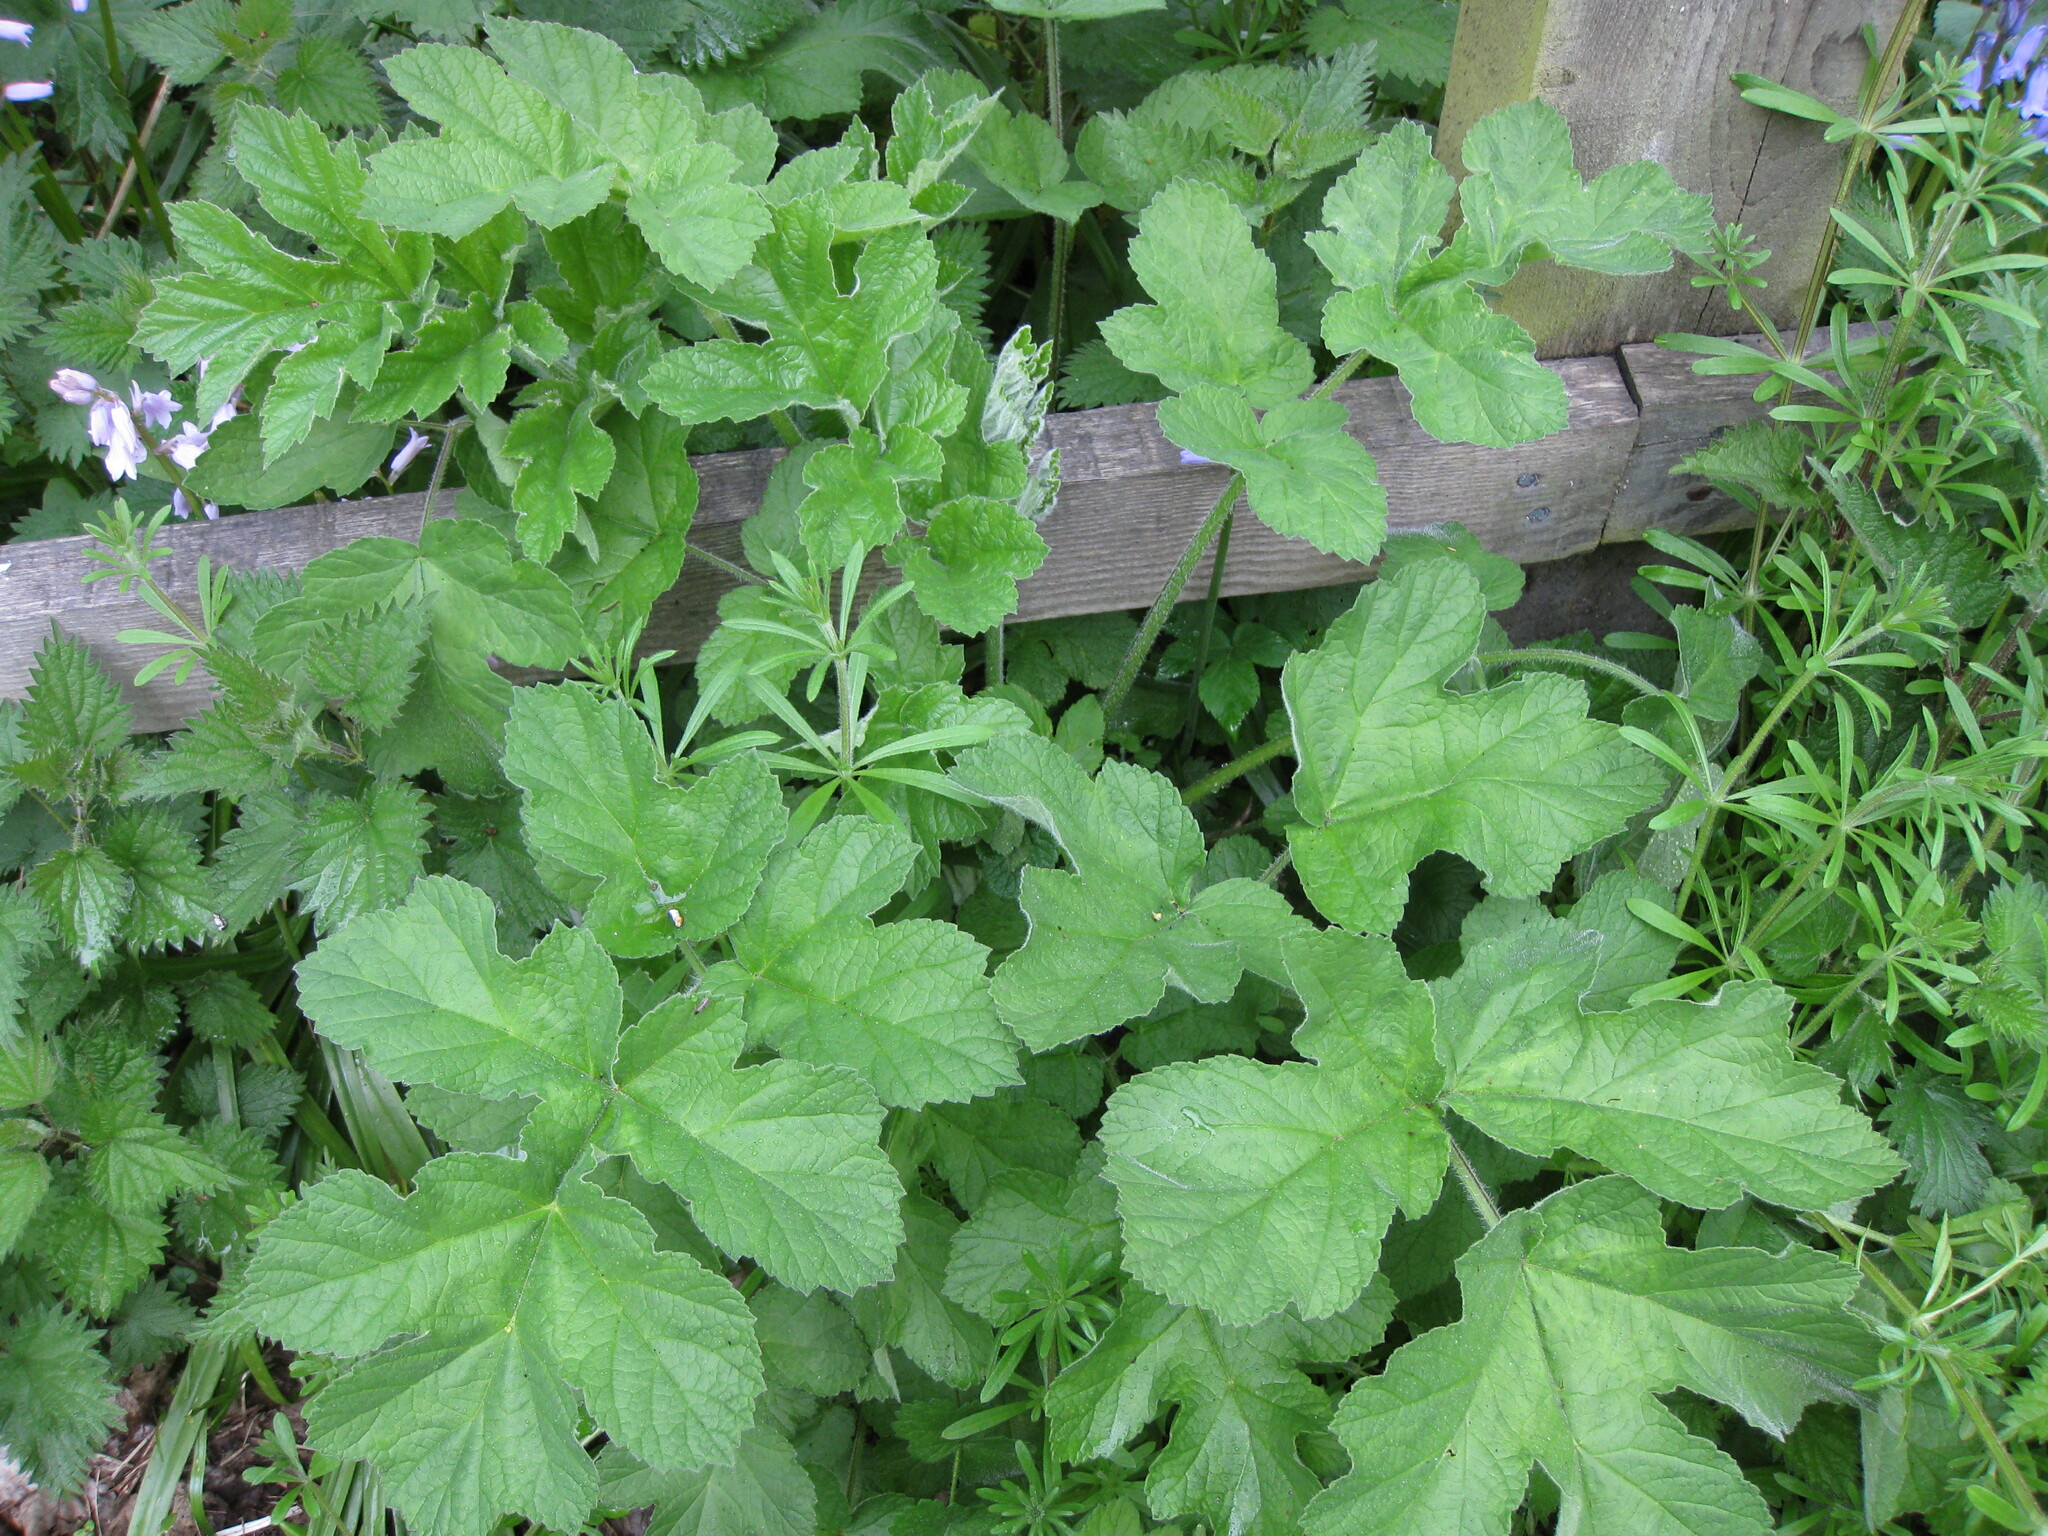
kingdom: Plantae
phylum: Tracheophyta
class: Magnoliopsida
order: Apiales
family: Apiaceae
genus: Heracleum
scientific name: Heracleum sphondylium
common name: Hogweed
